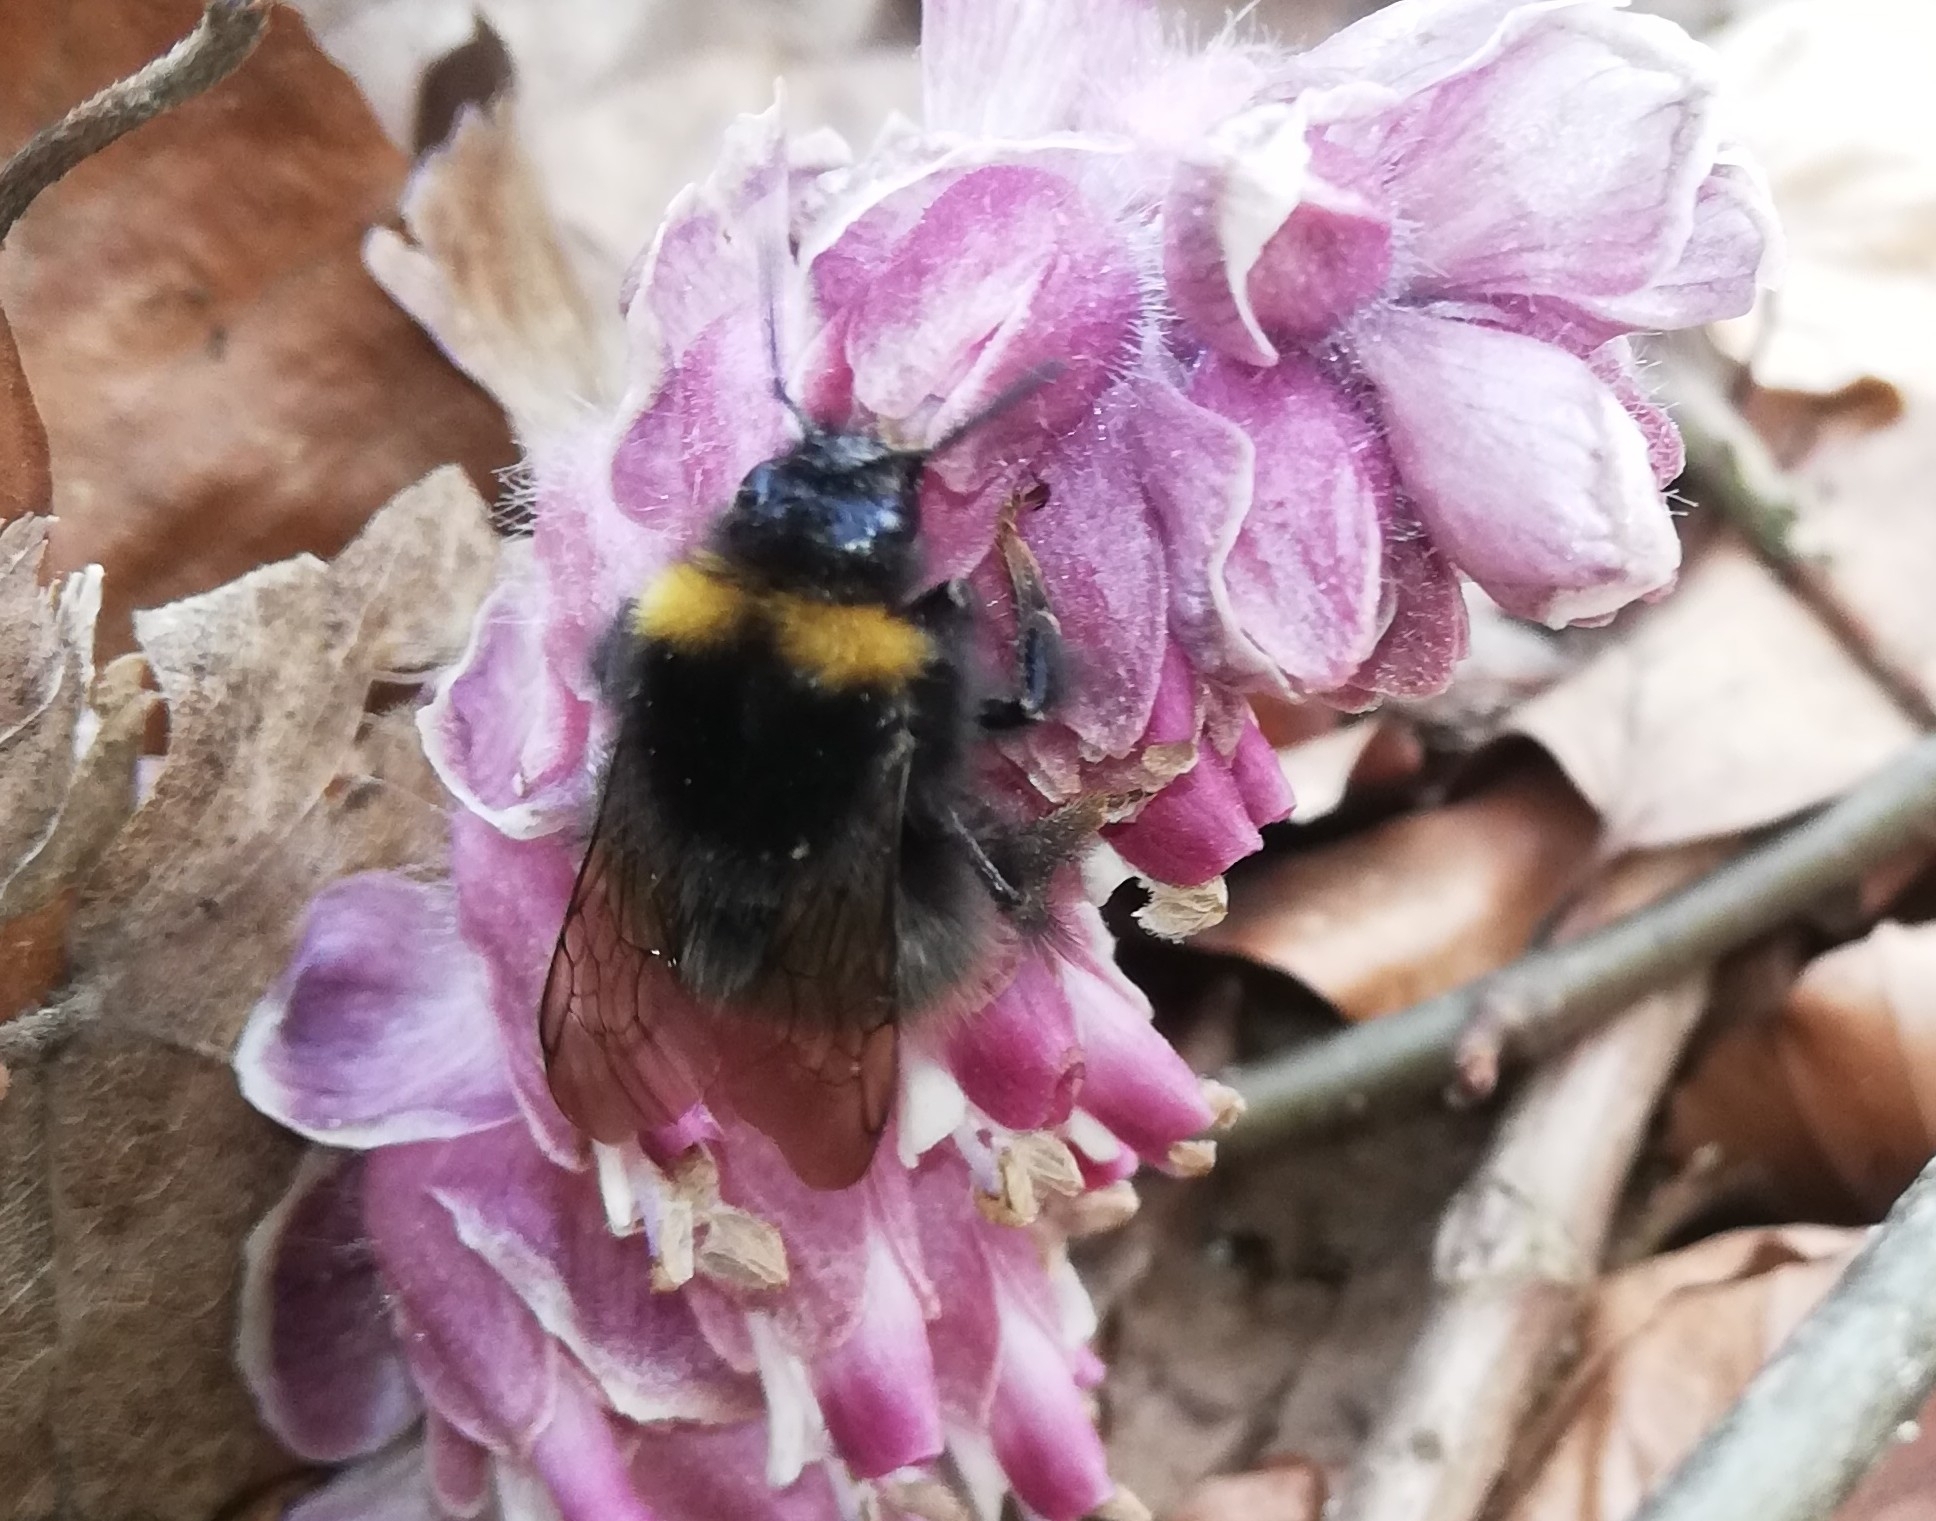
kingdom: Animalia
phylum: Arthropoda
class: Insecta
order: Hymenoptera
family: Apidae
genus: Bombus
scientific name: Bombus pratorum
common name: Early humble-bee
